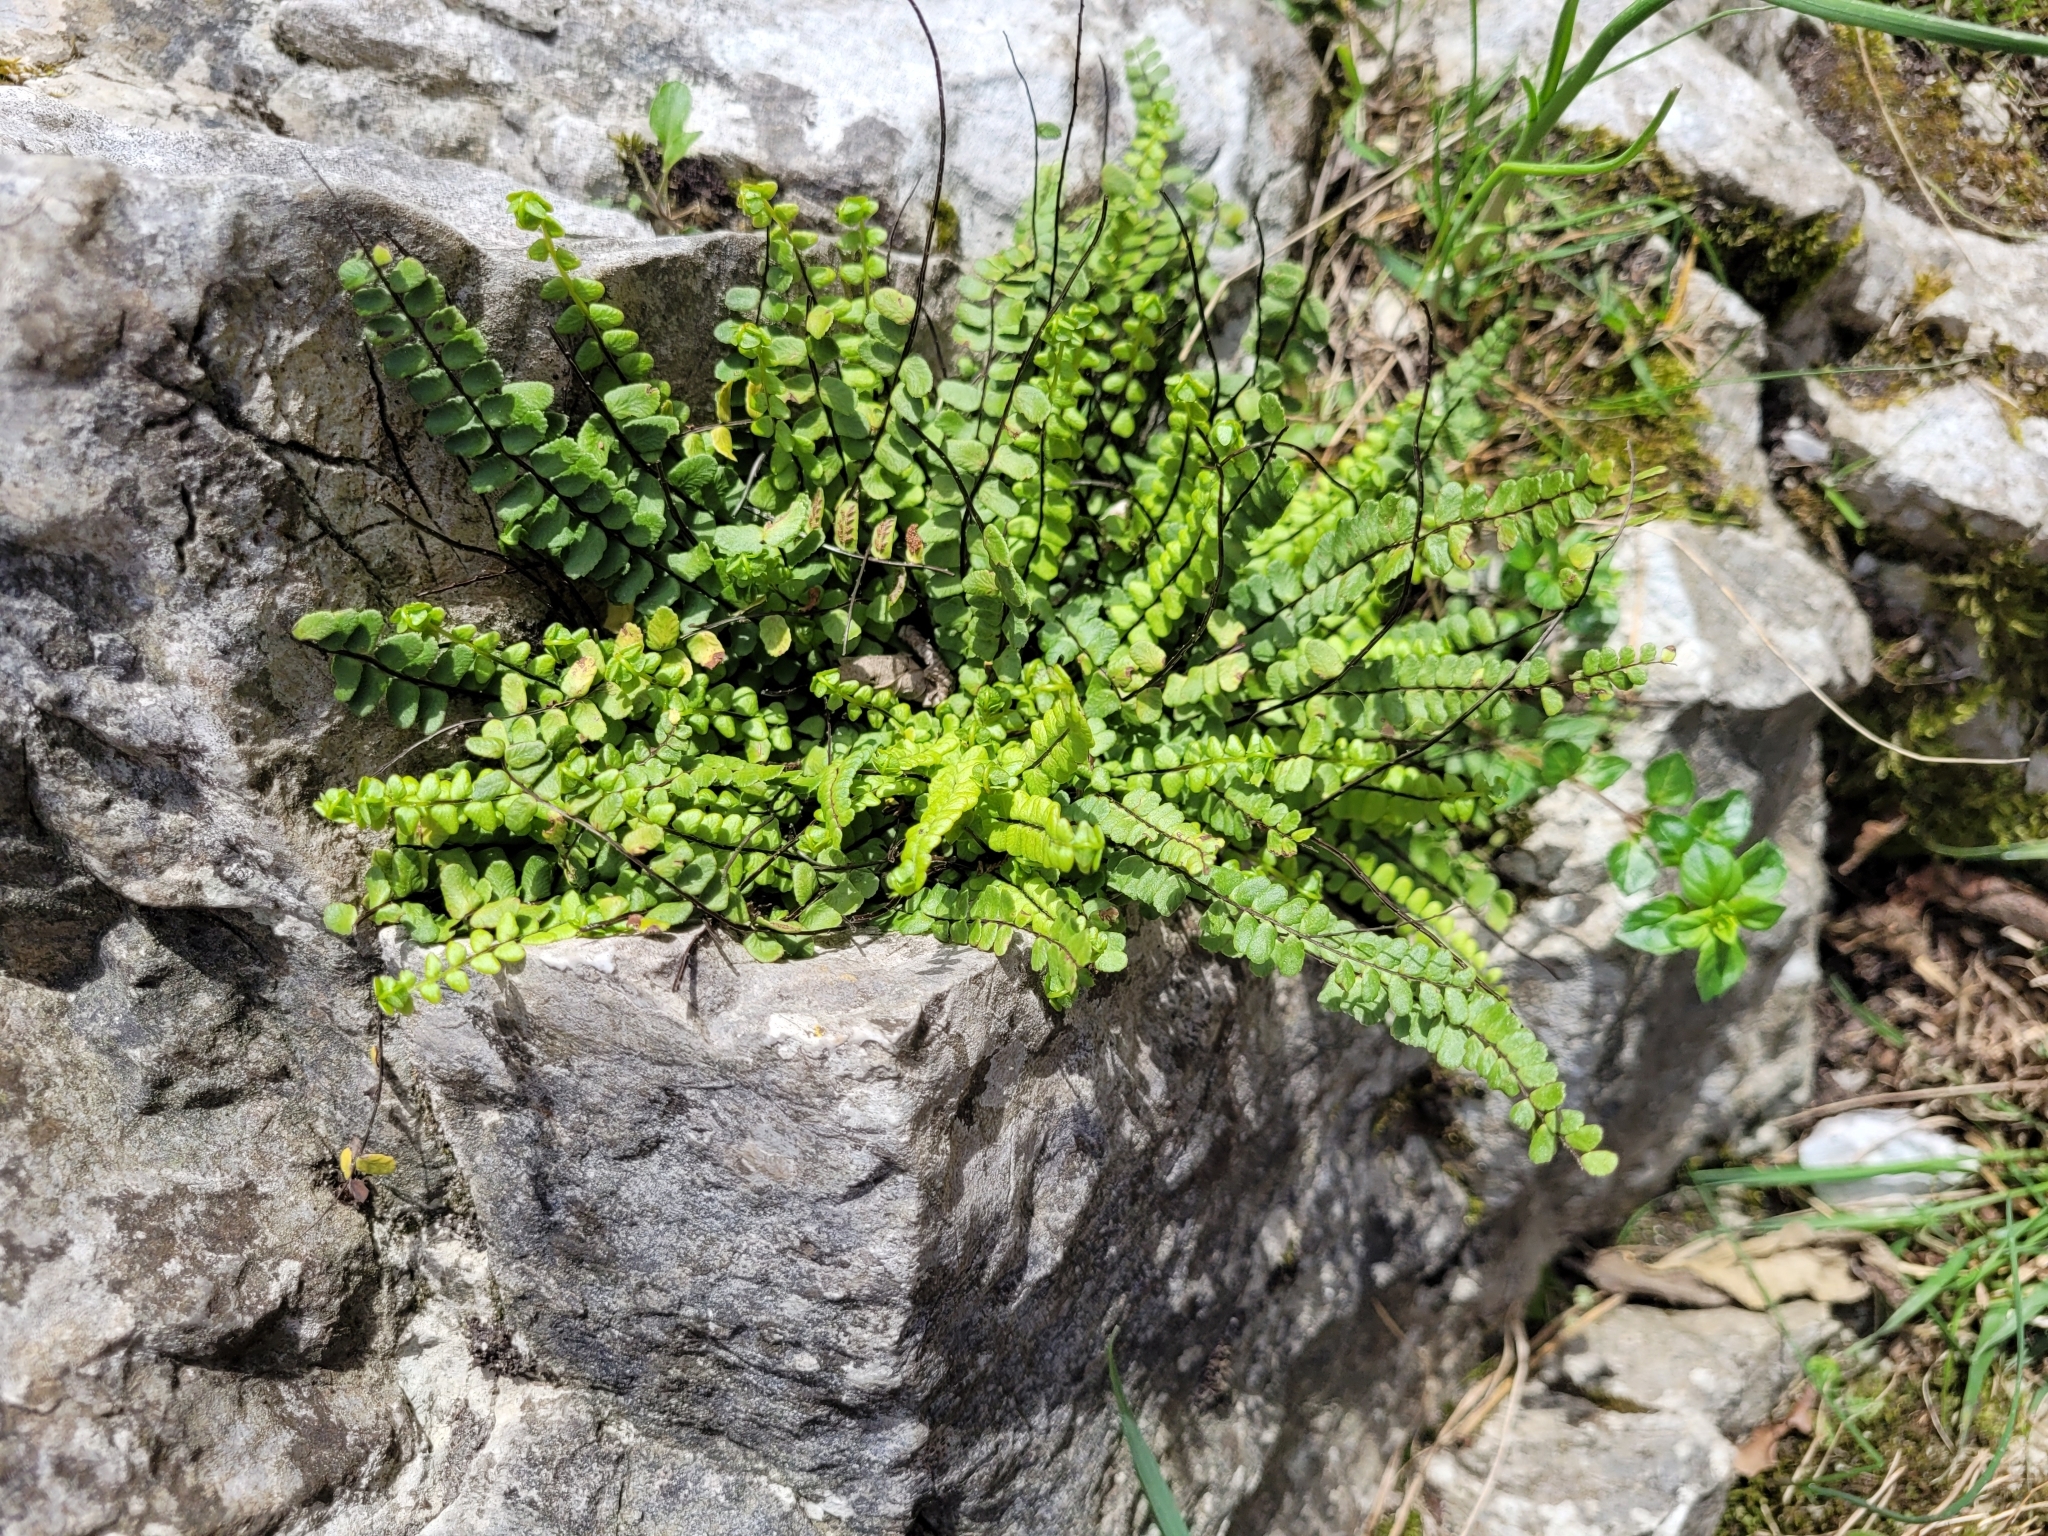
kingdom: Plantae
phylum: Tracheophyta
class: Polypodiopsida
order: Polypodiales
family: Aspleniaceae
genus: Asplenium
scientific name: Asplenium trichomanes
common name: Maidenhair spleenwort
